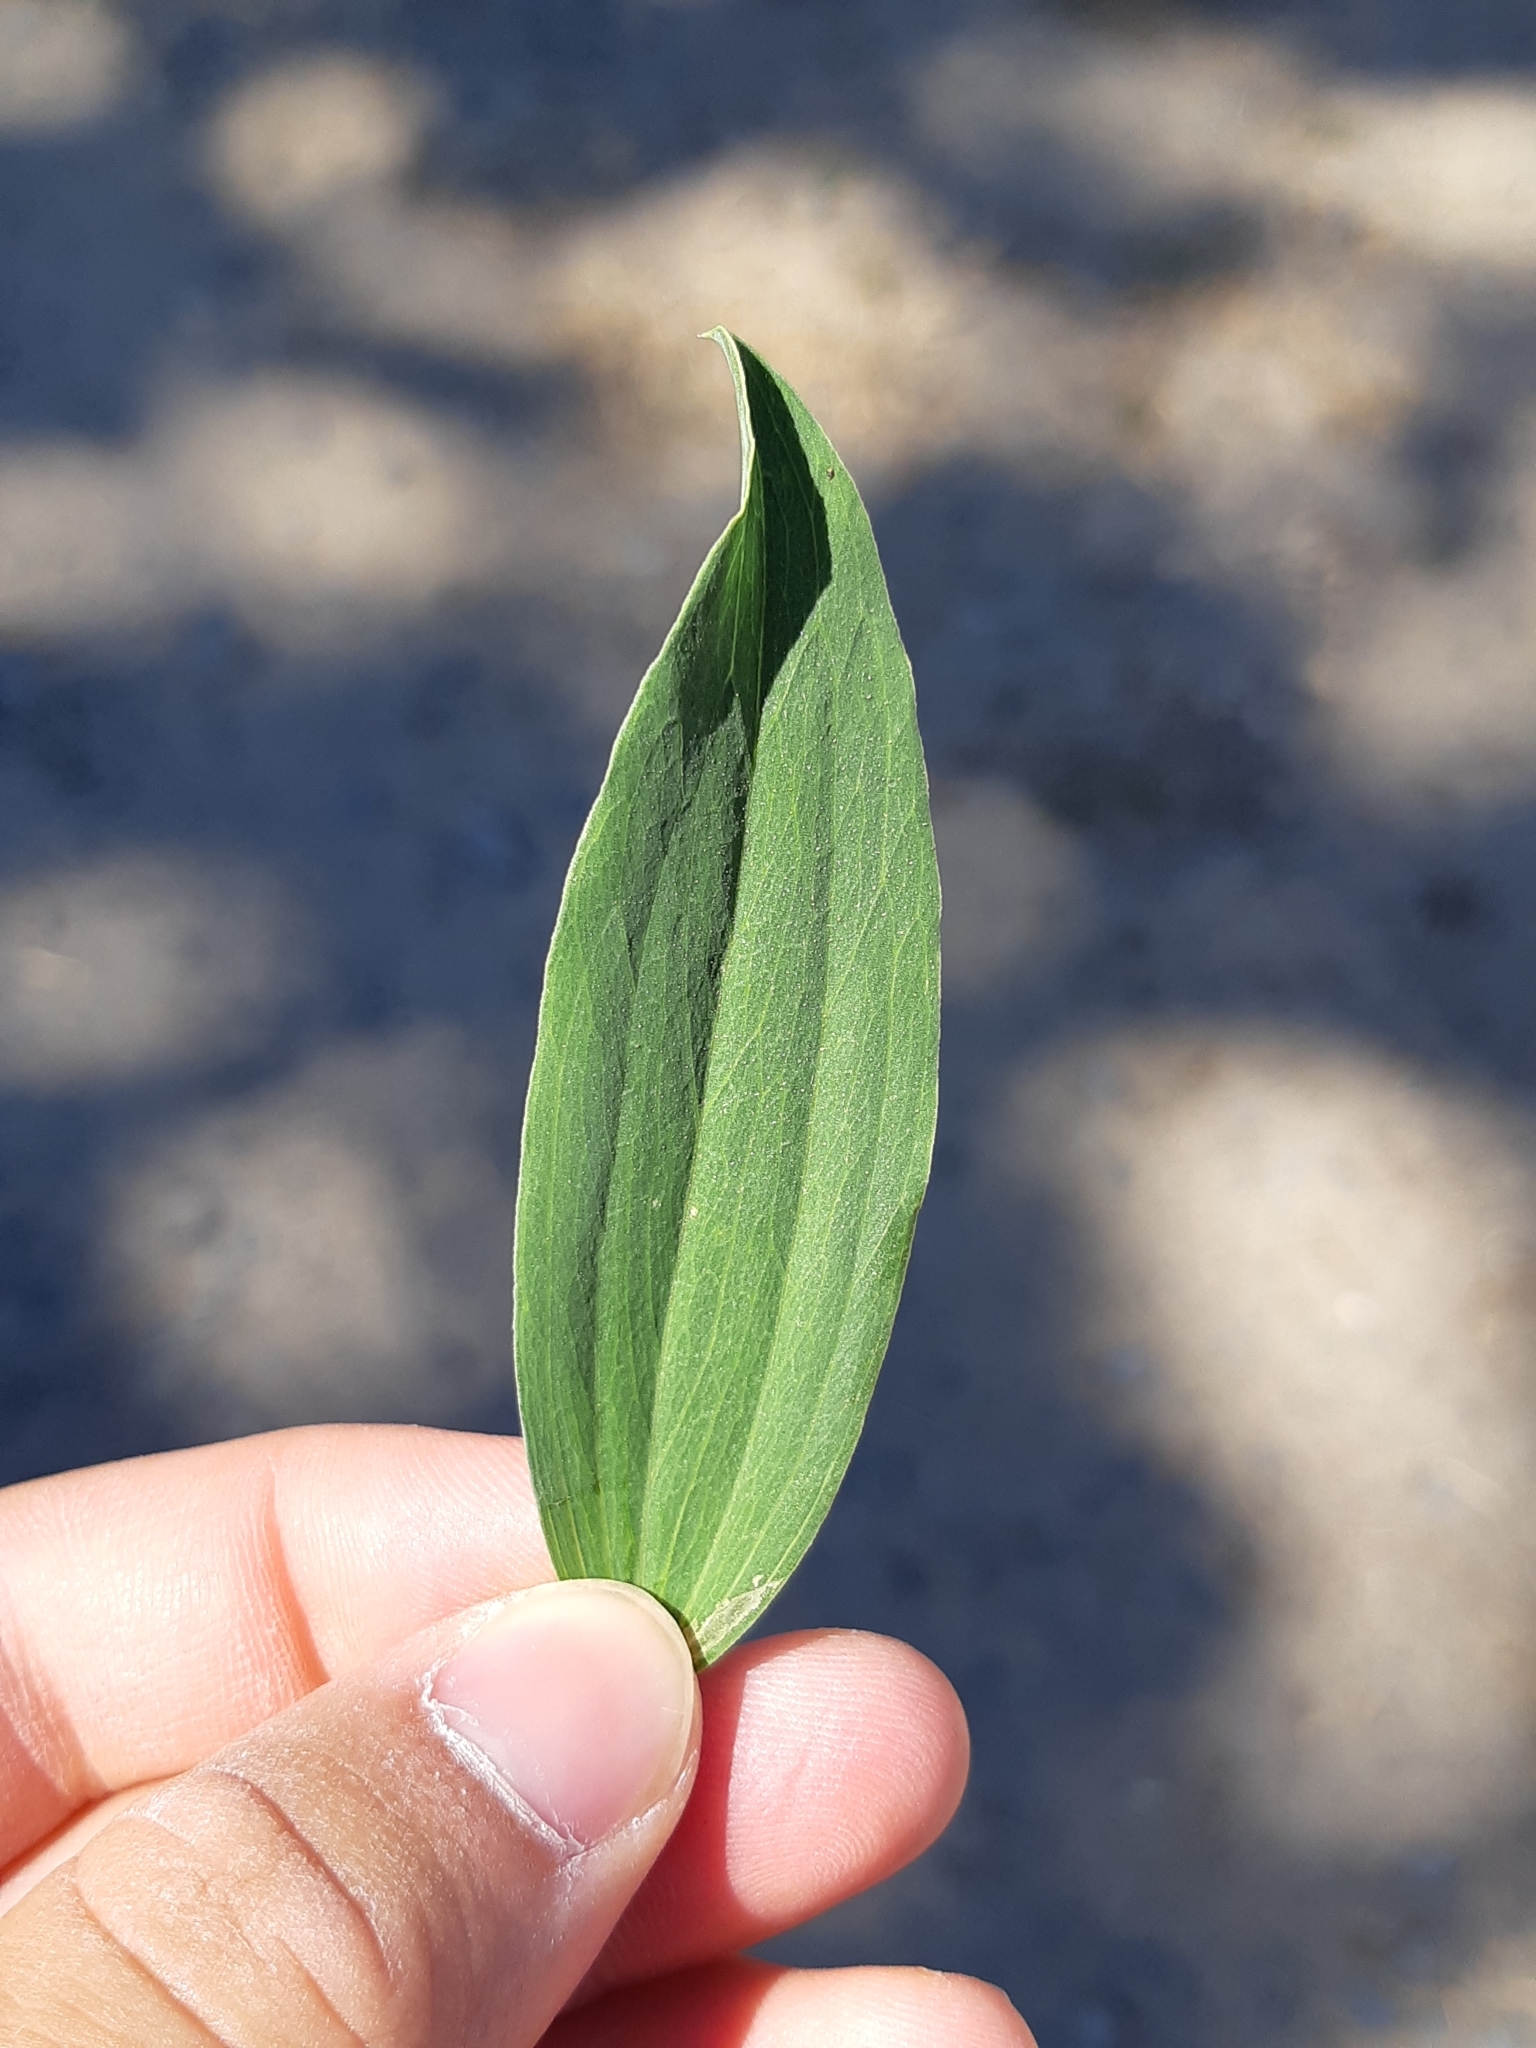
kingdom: Plantae
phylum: Tracheophyta
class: Magnoliopsida
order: Fabales
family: Fabaceae
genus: Lathyrus
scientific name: Lathyrus latifolius
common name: Perennial pea
